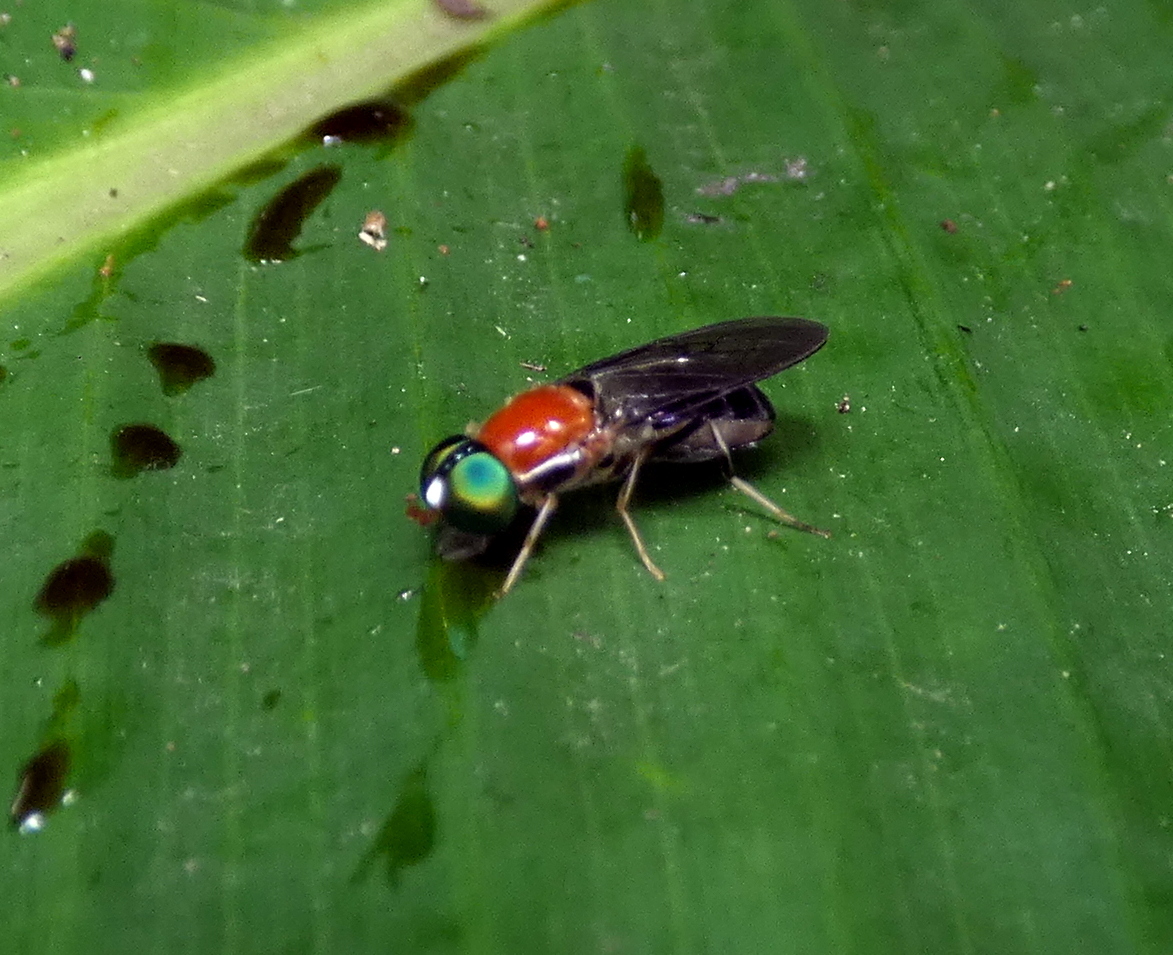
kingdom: Animalia
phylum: Arthropoda
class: Insecta
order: Diptera
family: Stratiomyidae
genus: Sargus
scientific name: Sargus thoracicus
